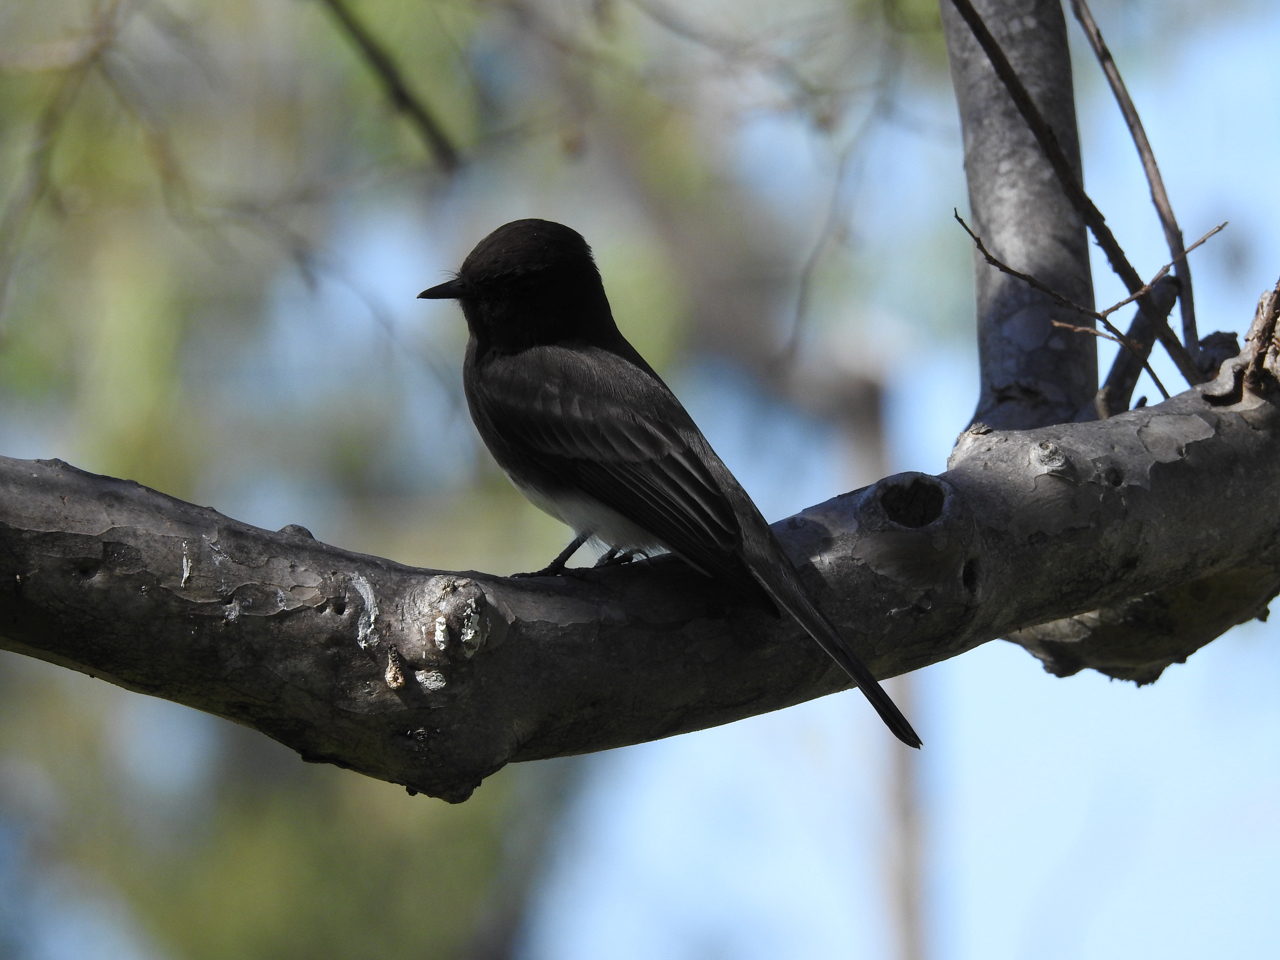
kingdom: Animalia
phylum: Chordata
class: Aves
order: Passeriformes
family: Tyrannidae
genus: Sayornis
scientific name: Sayornis nigricans
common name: Black phoebe
